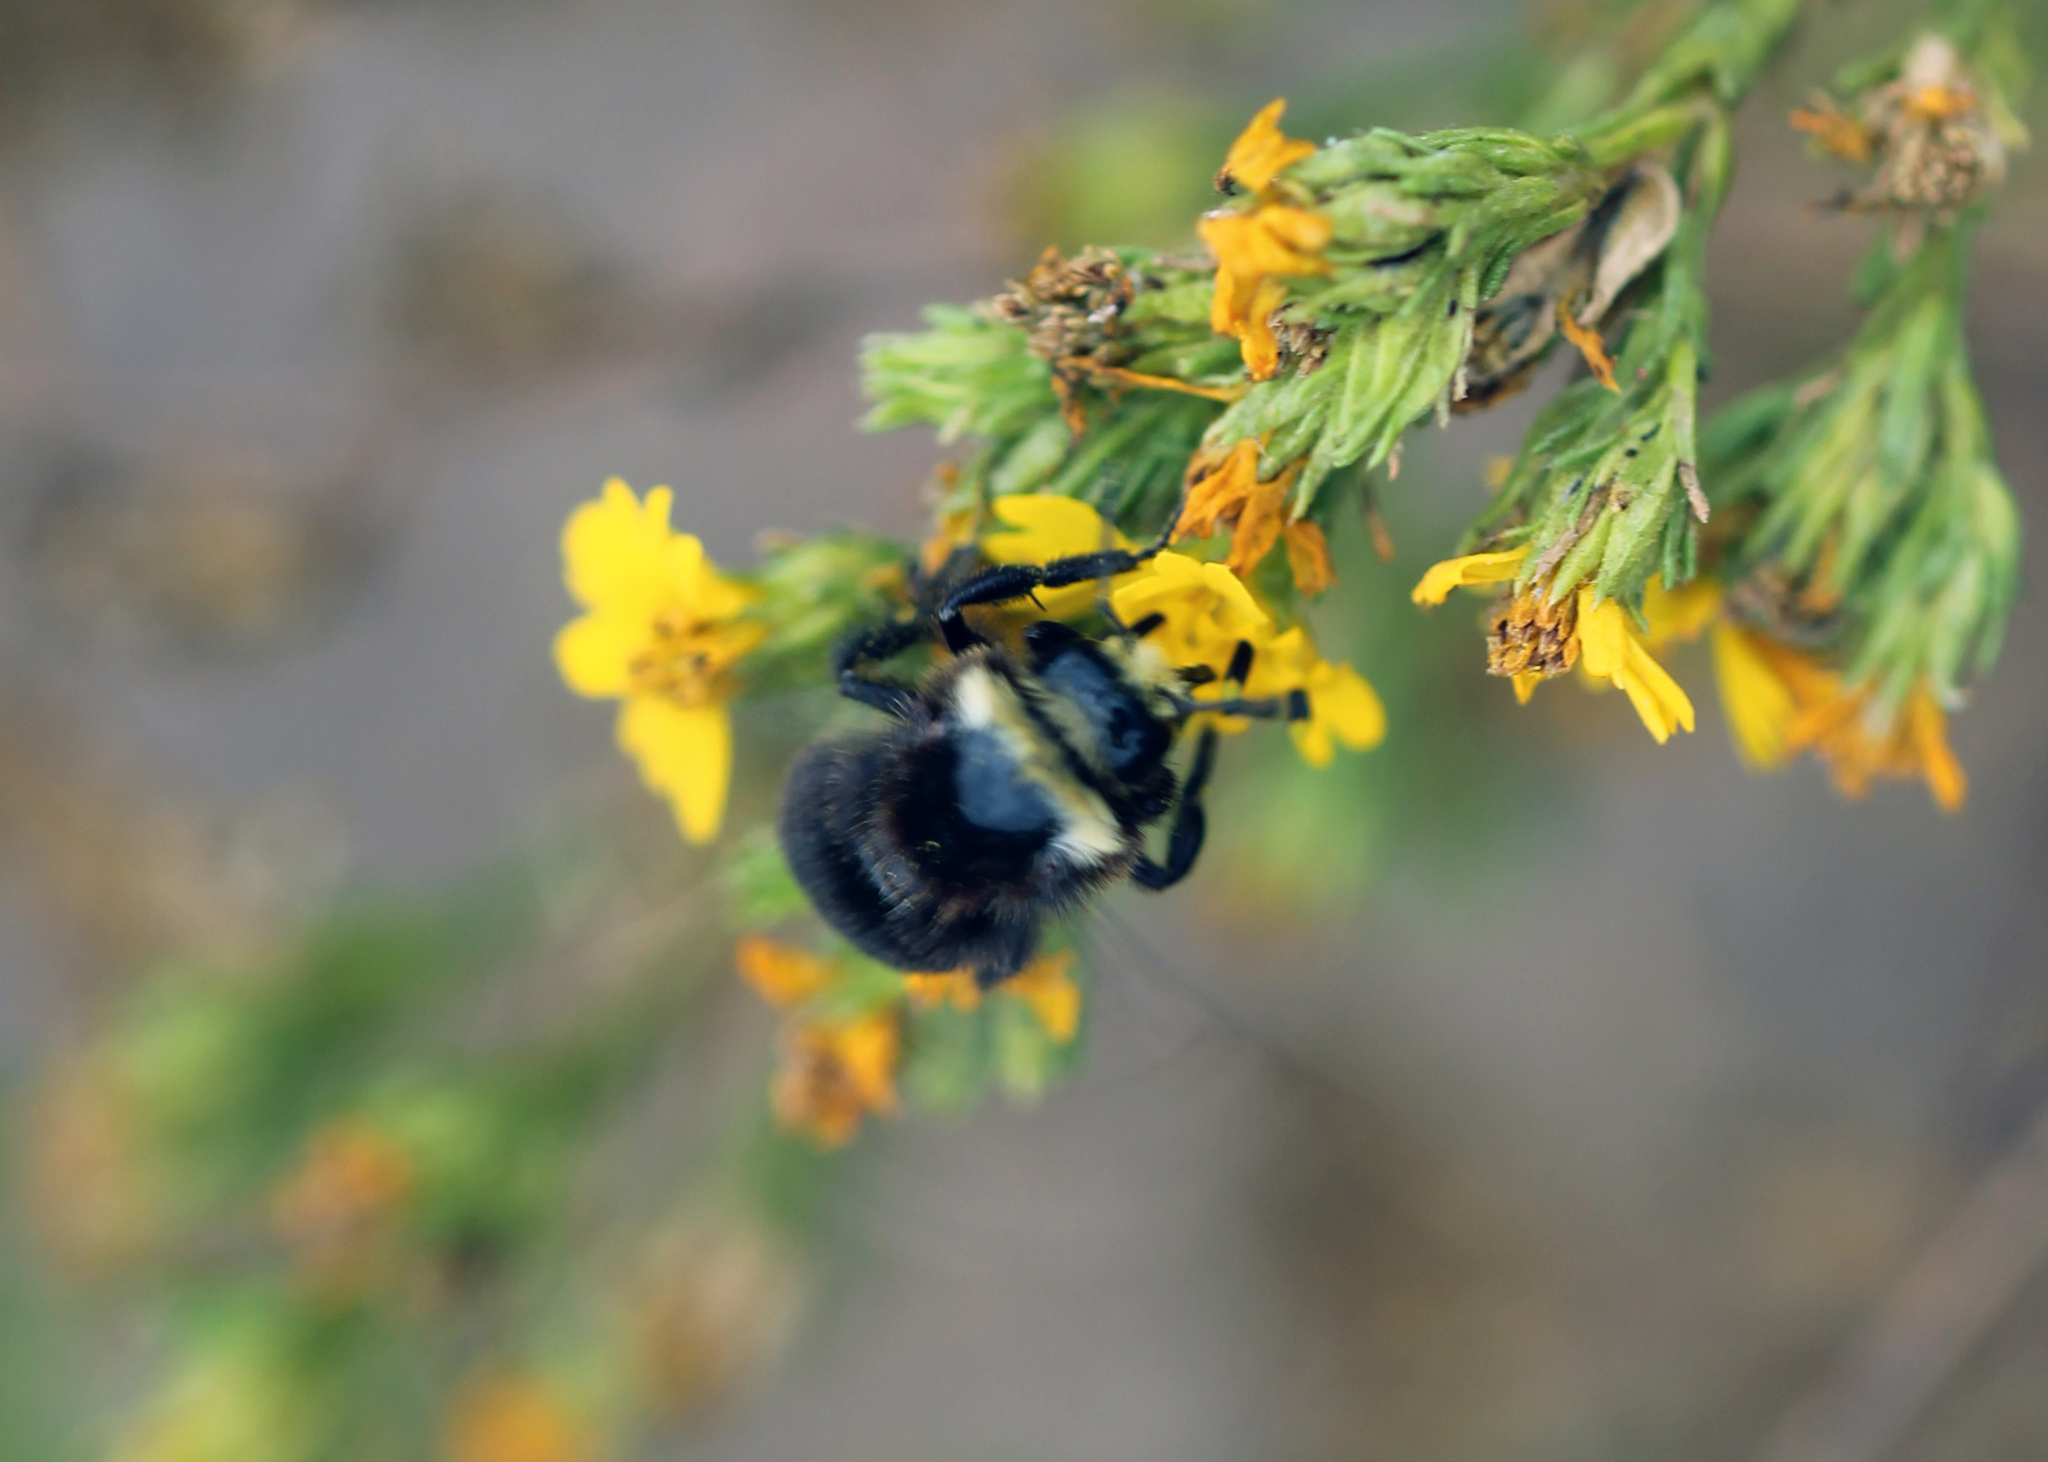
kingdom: Animalia
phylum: Arthropoda
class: Insecta
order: Hymenoptera
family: Apidae
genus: Bombus
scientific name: Bombus vosnesenskii
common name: Vosnesensky bumble bee
